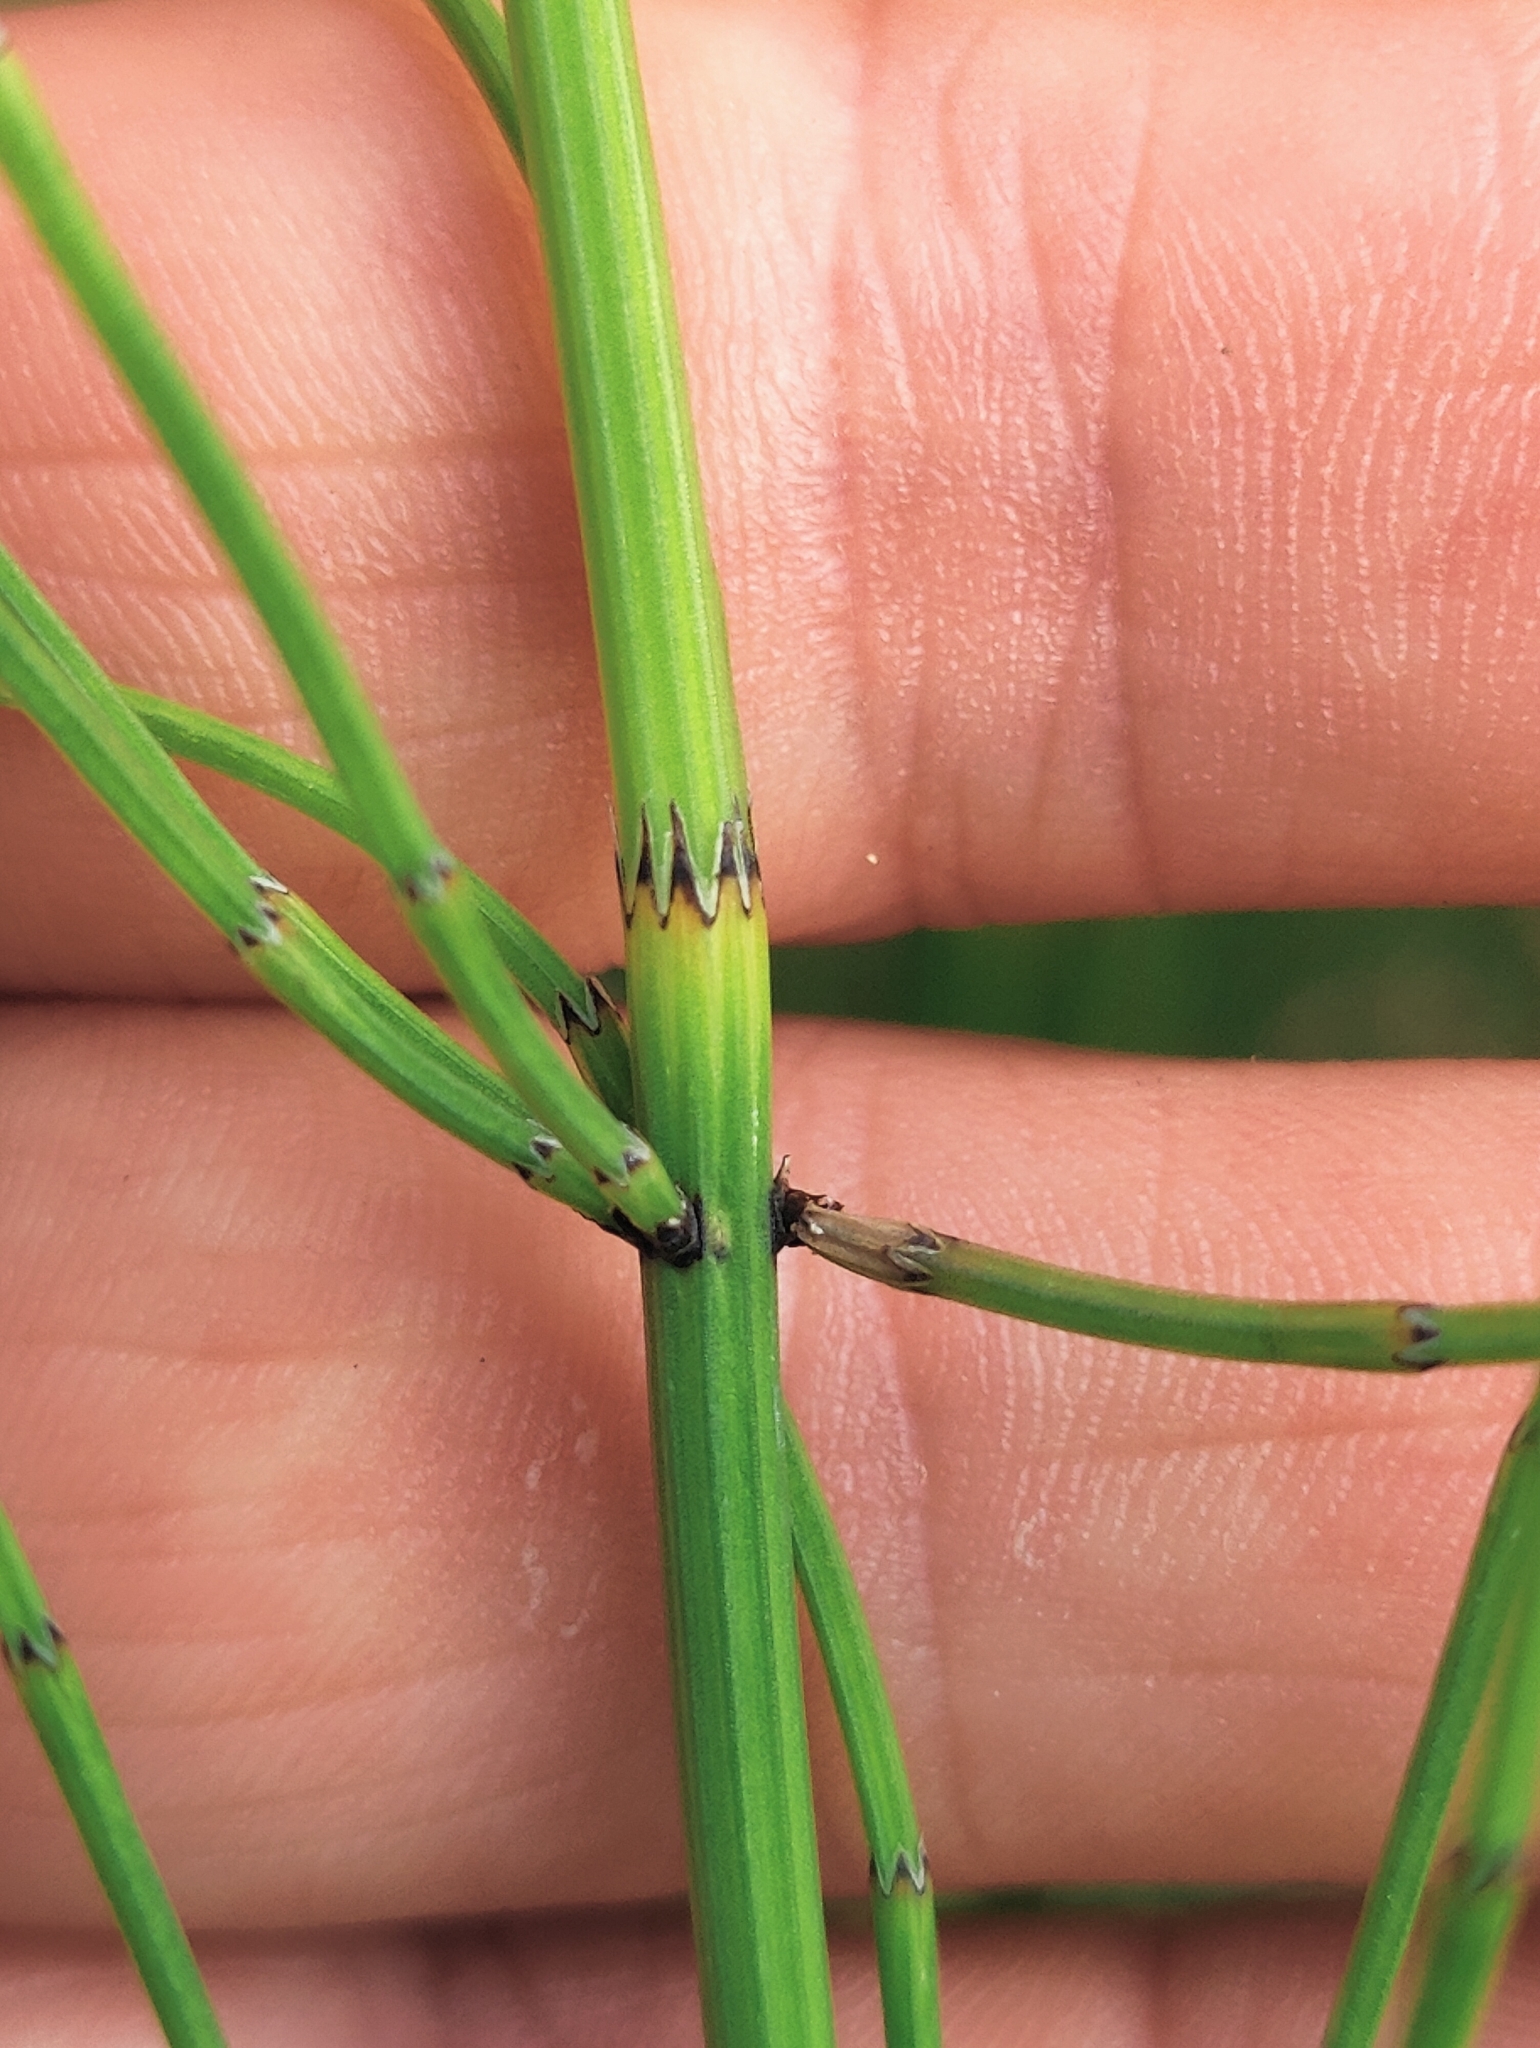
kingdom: Plantae
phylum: Tracheophyta
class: Polypodiopsida
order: Equisetales
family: Equisetaceae
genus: Equisetum
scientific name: Equisetum palustre
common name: Marsh horsetail
